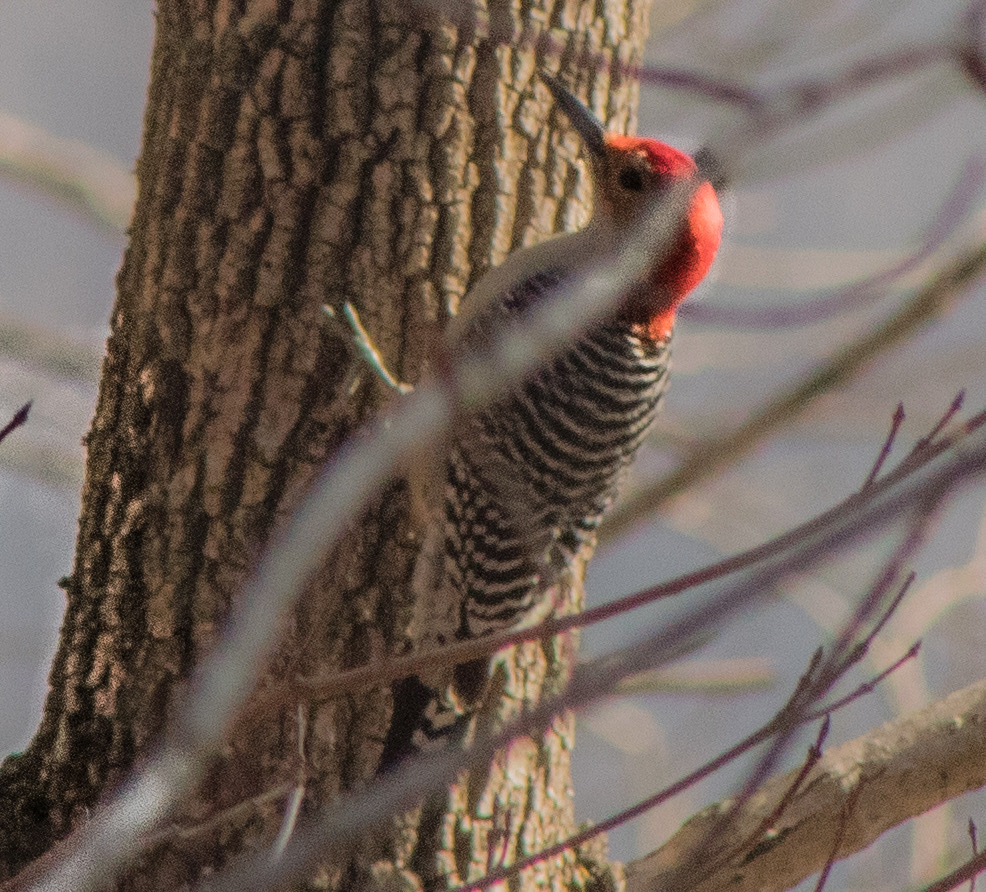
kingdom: Animalia
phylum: Chordata
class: Aves
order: Piciformes
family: Picidae
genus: Melanerpes
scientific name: Melanerpes carolinus
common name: Red-bellied woodpecker
